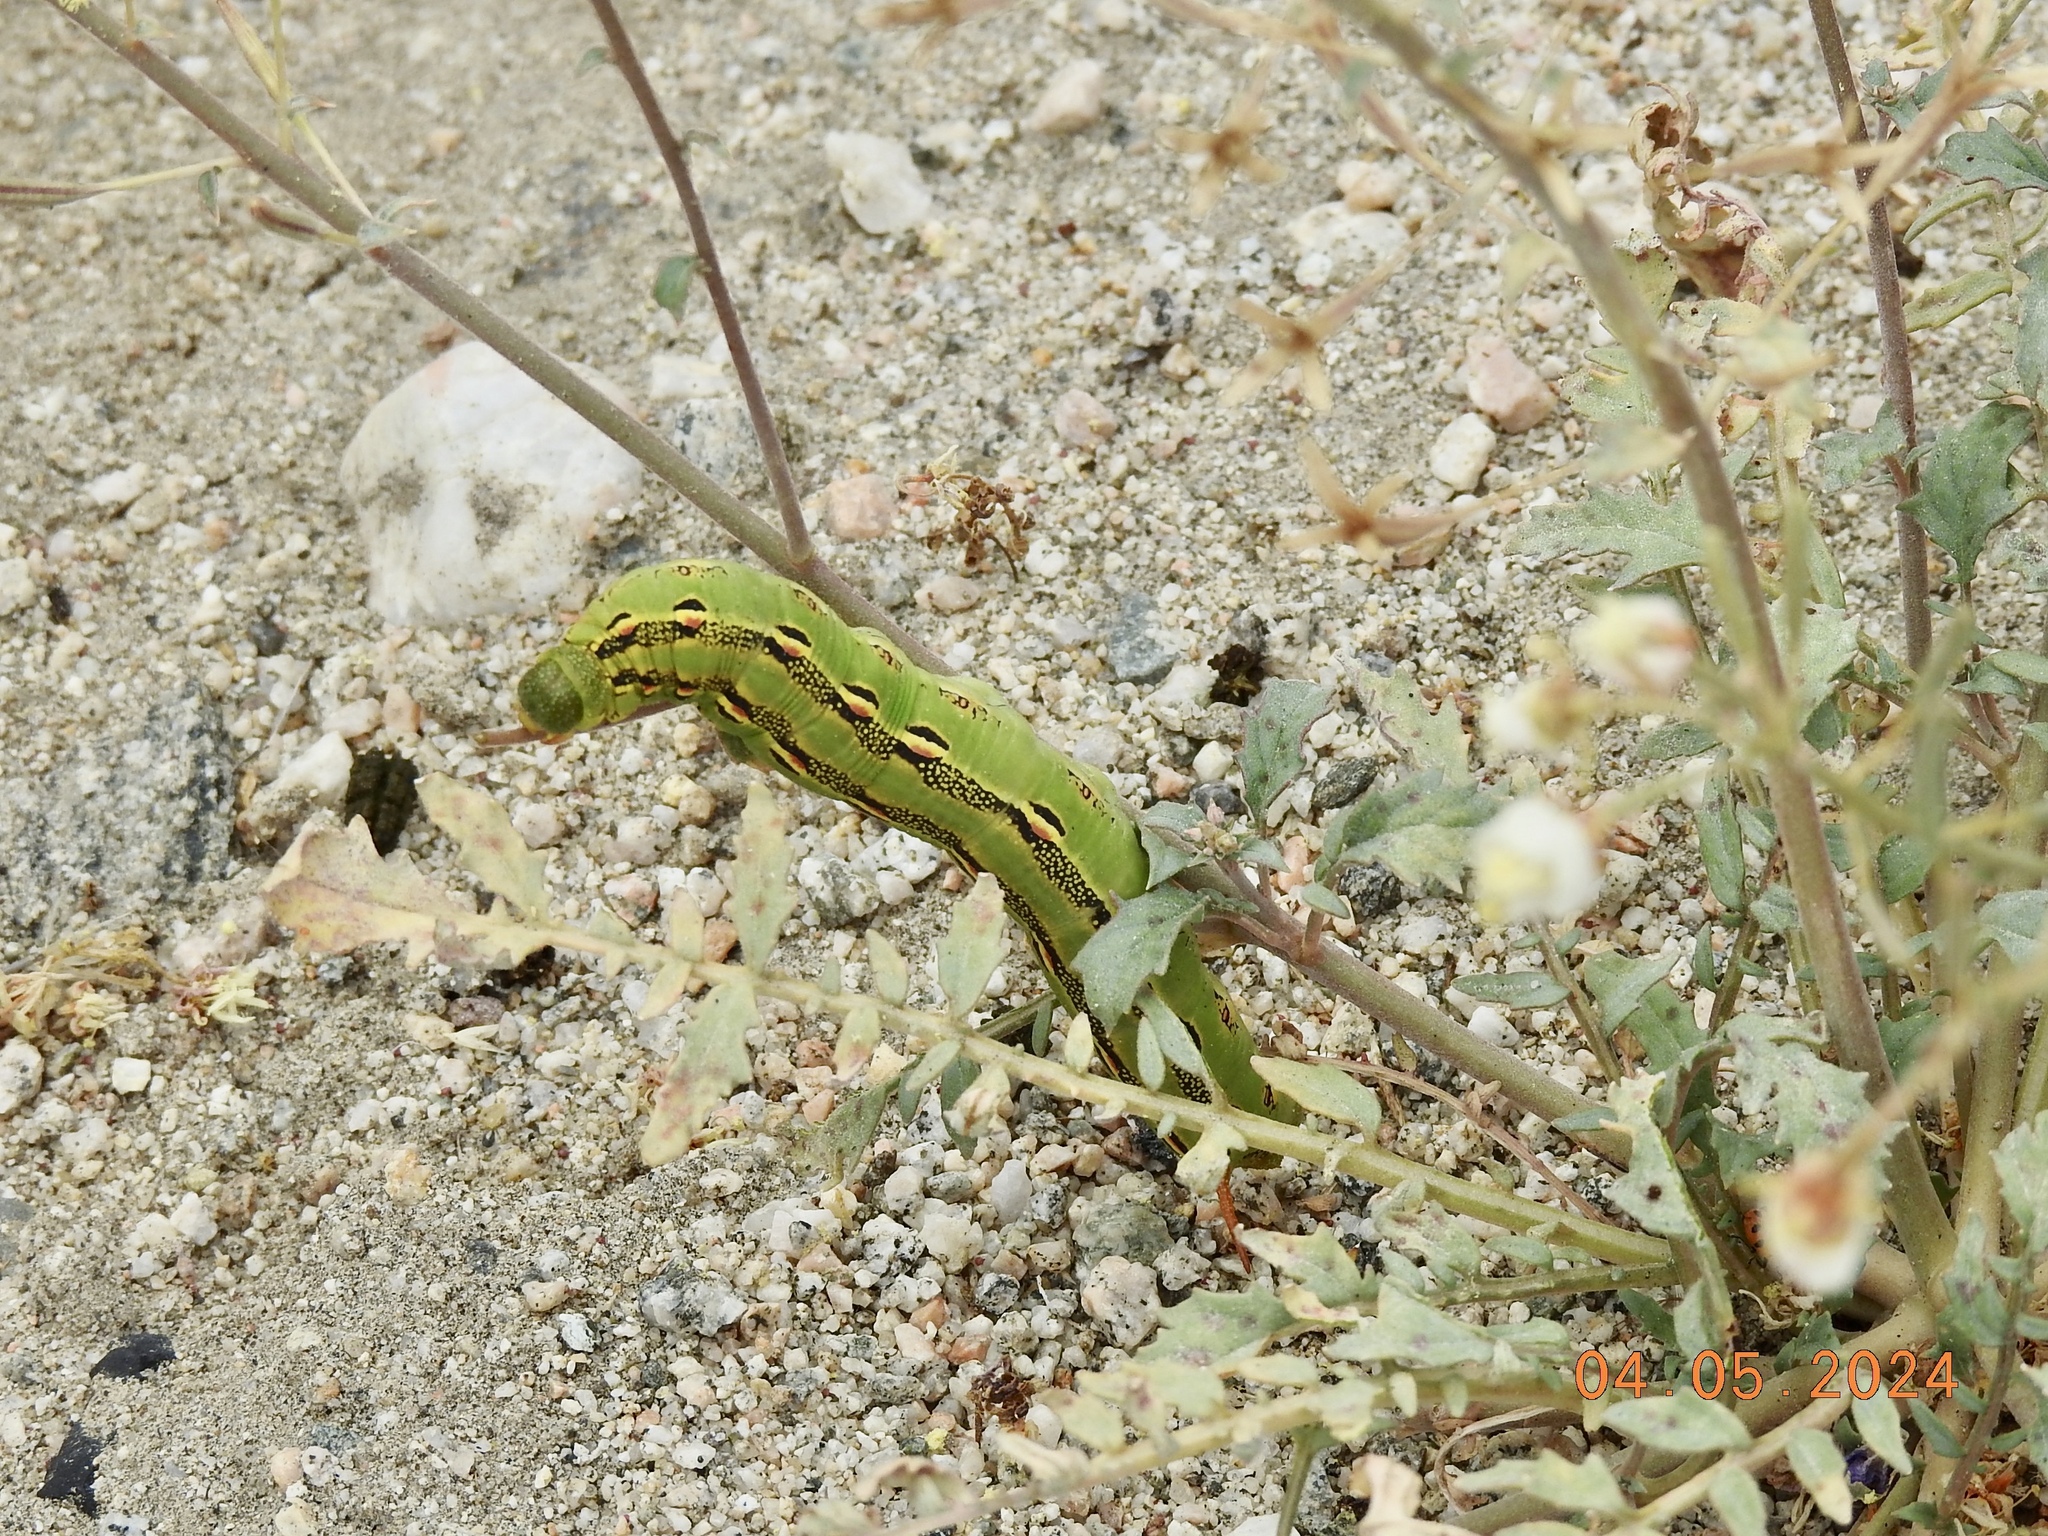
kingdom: Animalia
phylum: Arthropoda
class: Insecta
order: Lepidoptera
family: Sphingidae
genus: Hyles
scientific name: Hyles lineata
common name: White-lined sphinx
